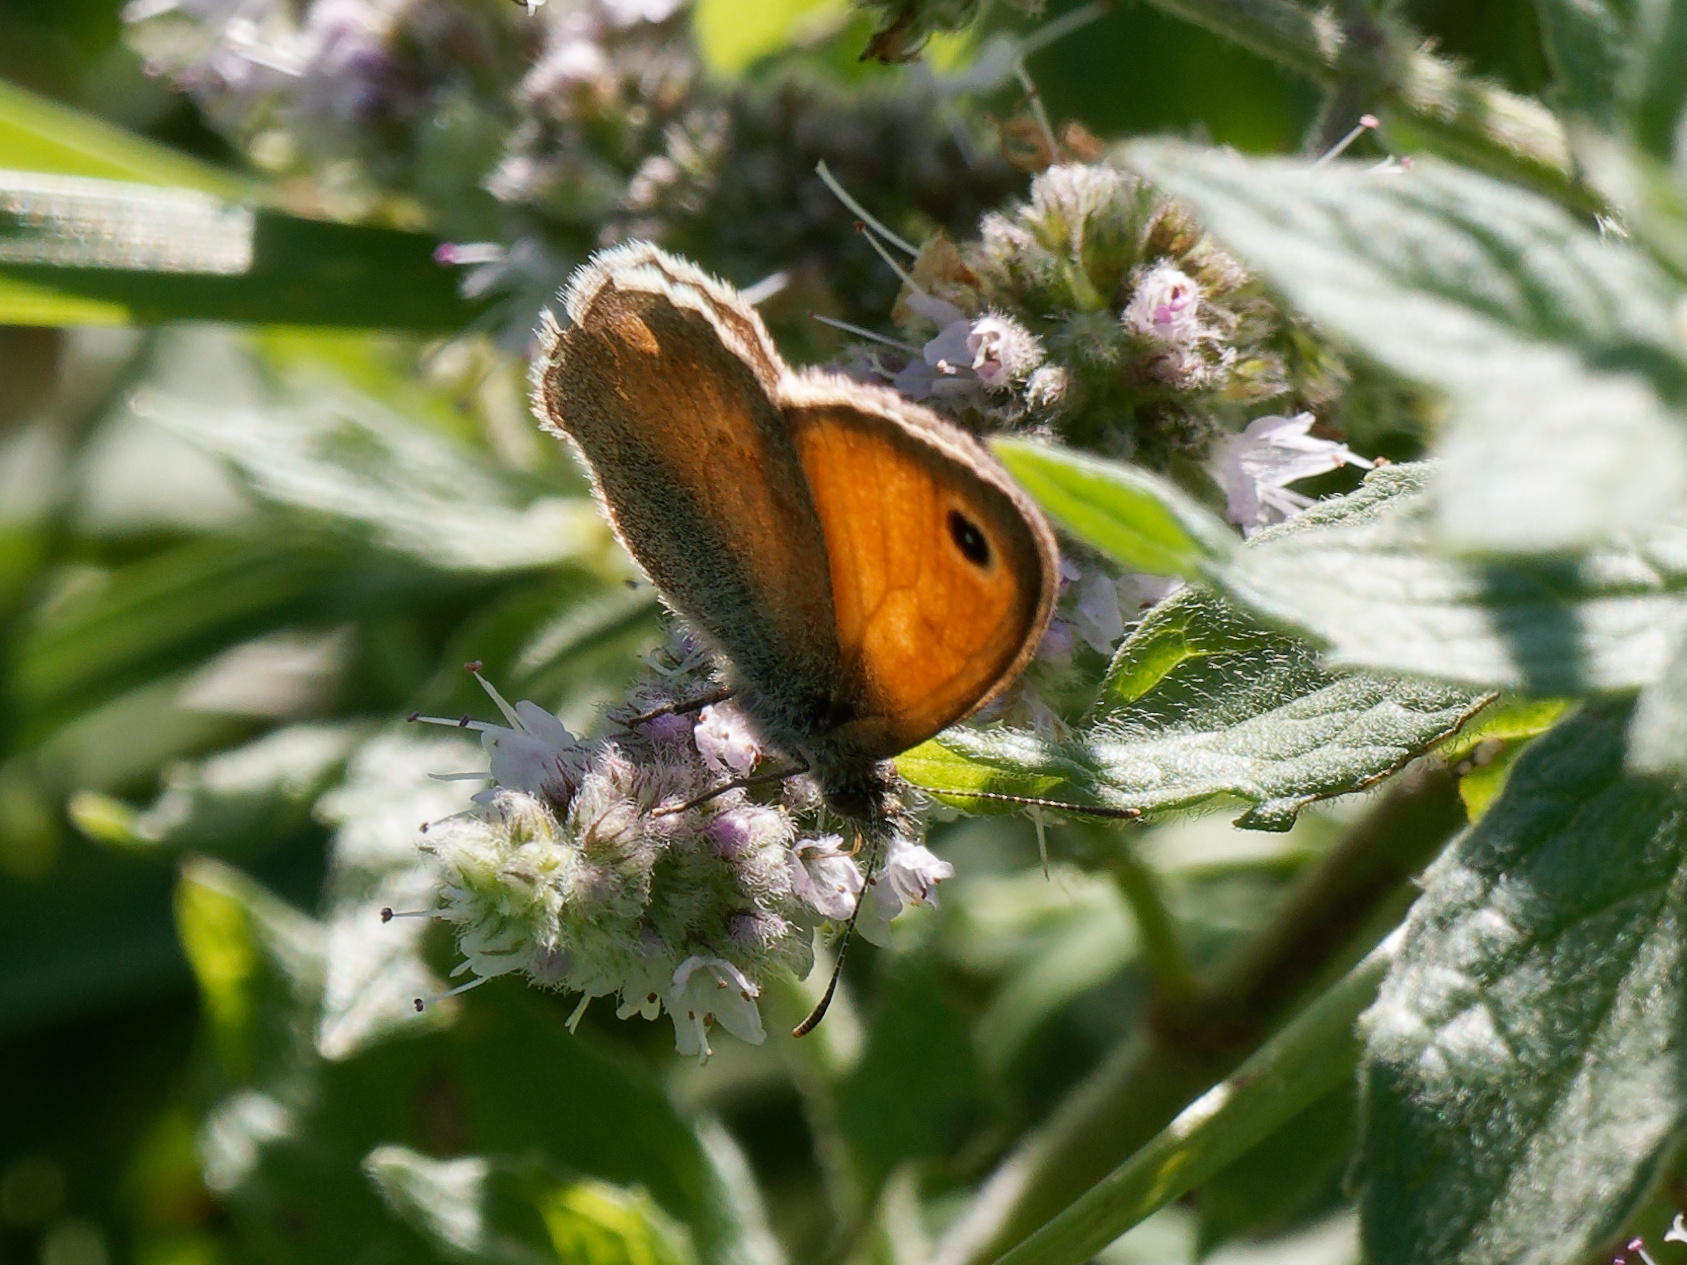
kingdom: Animalia
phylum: Arthropoda
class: Insecta
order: Lepidoptera
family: Nymphalidae
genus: Coenonympha
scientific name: Coenonympha pamphilus
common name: Small heath
